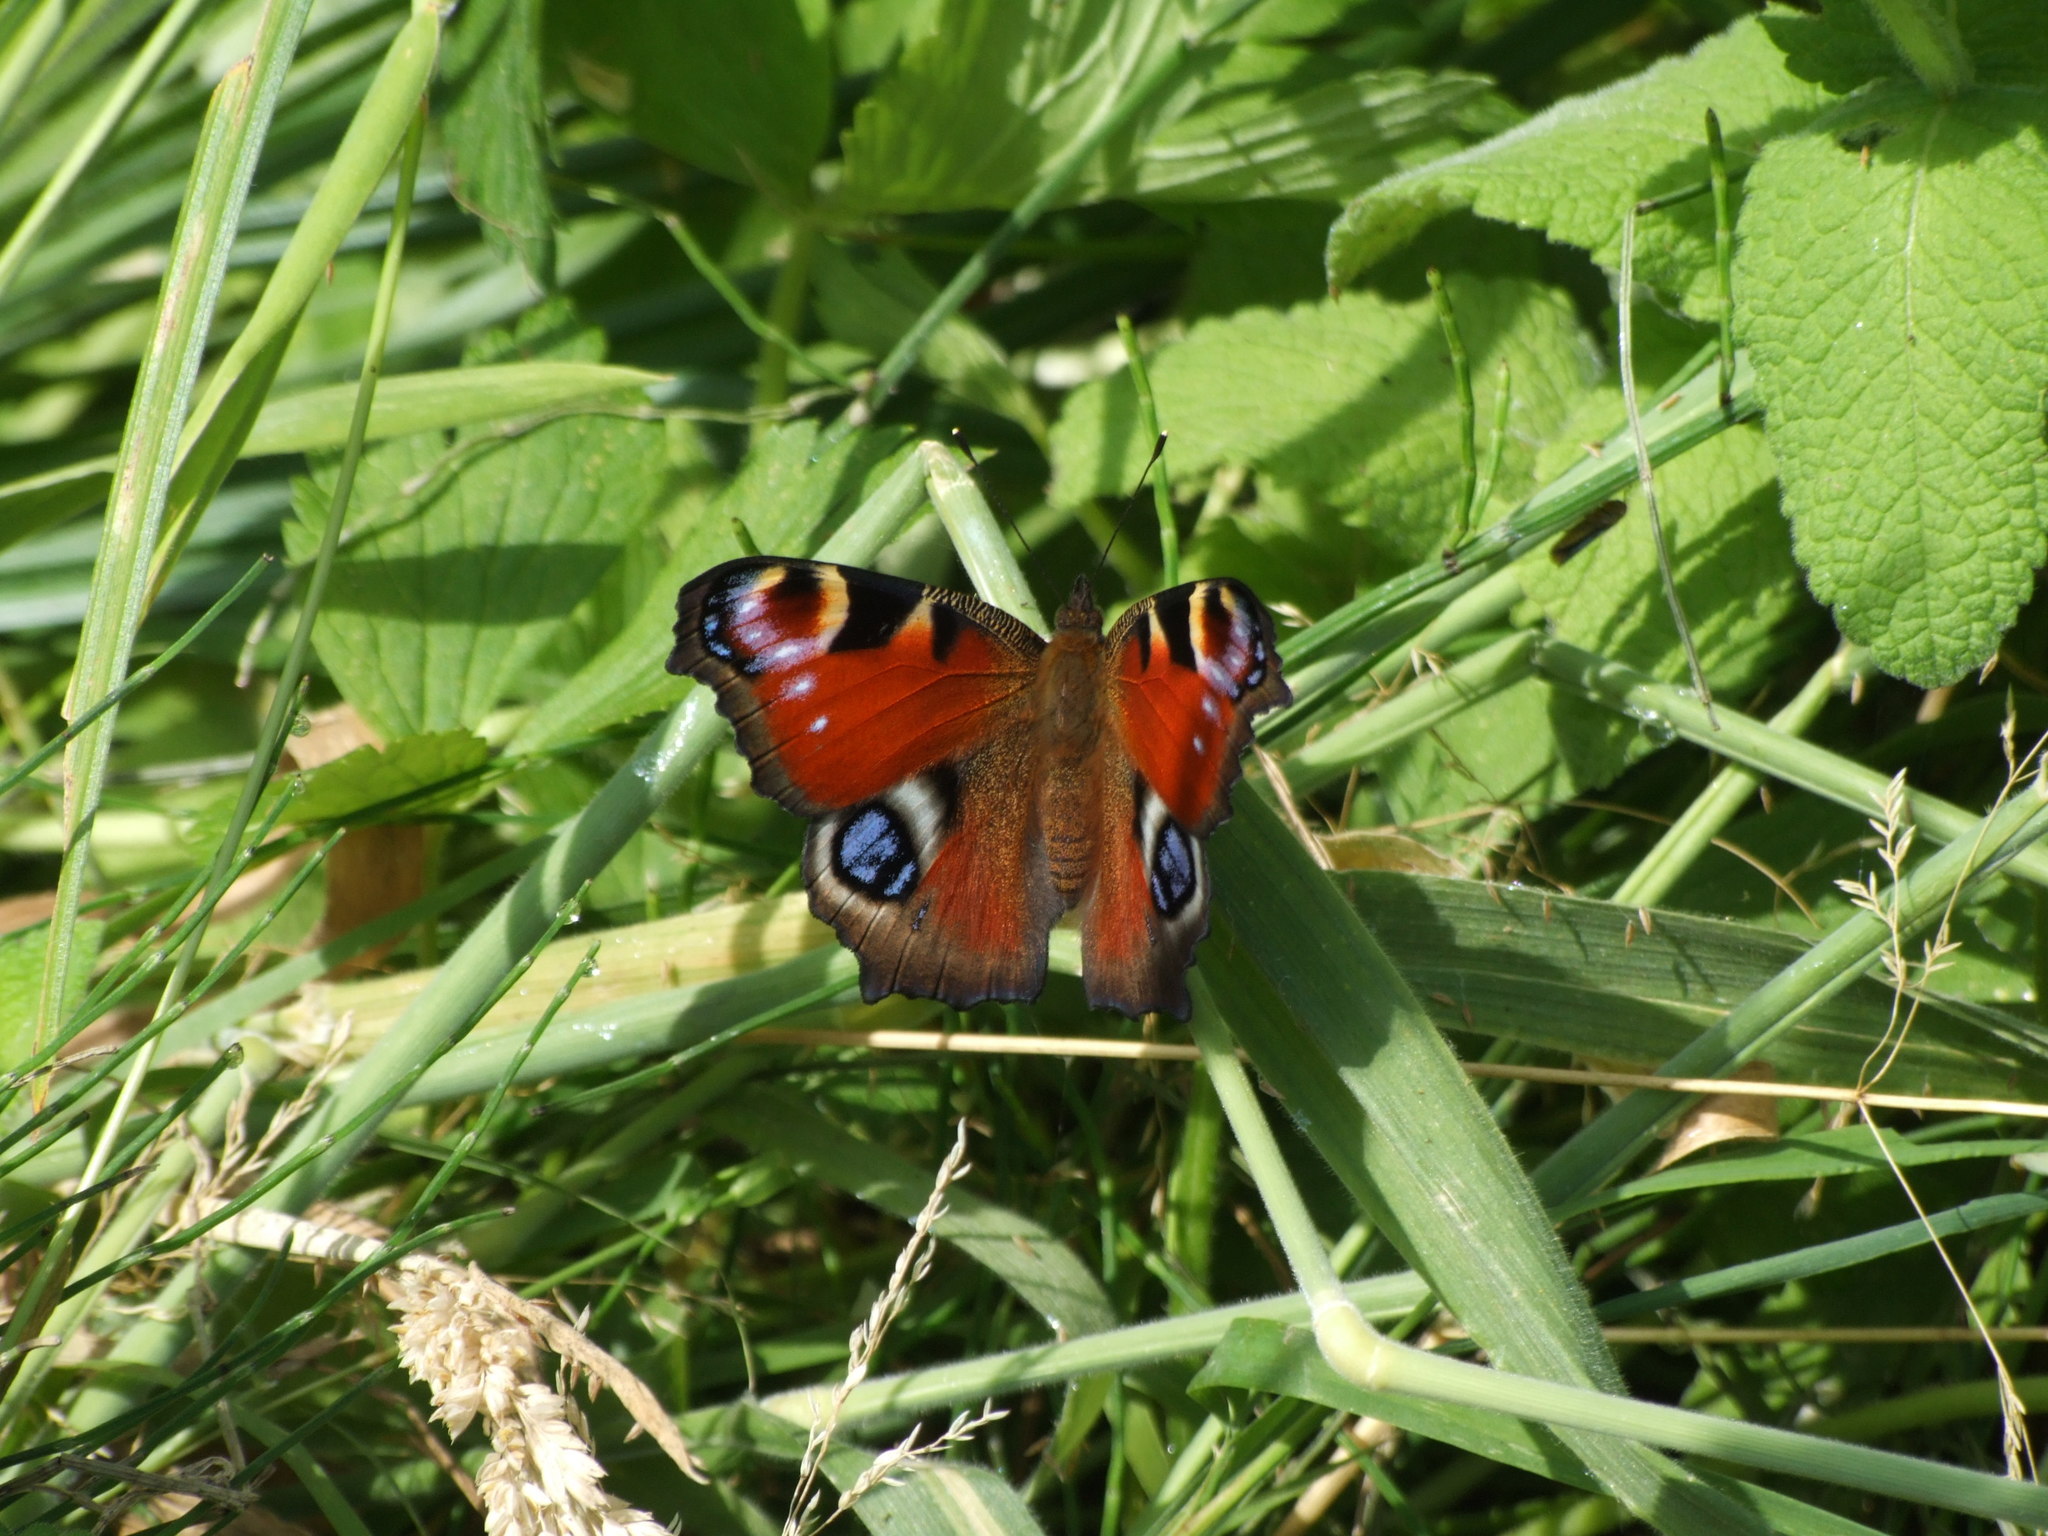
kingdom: Animalia
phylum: Arthropoda
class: Insecta
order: Lepidoptera
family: Nymphalidae
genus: Aglais
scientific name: Aglais io
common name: Peacock
